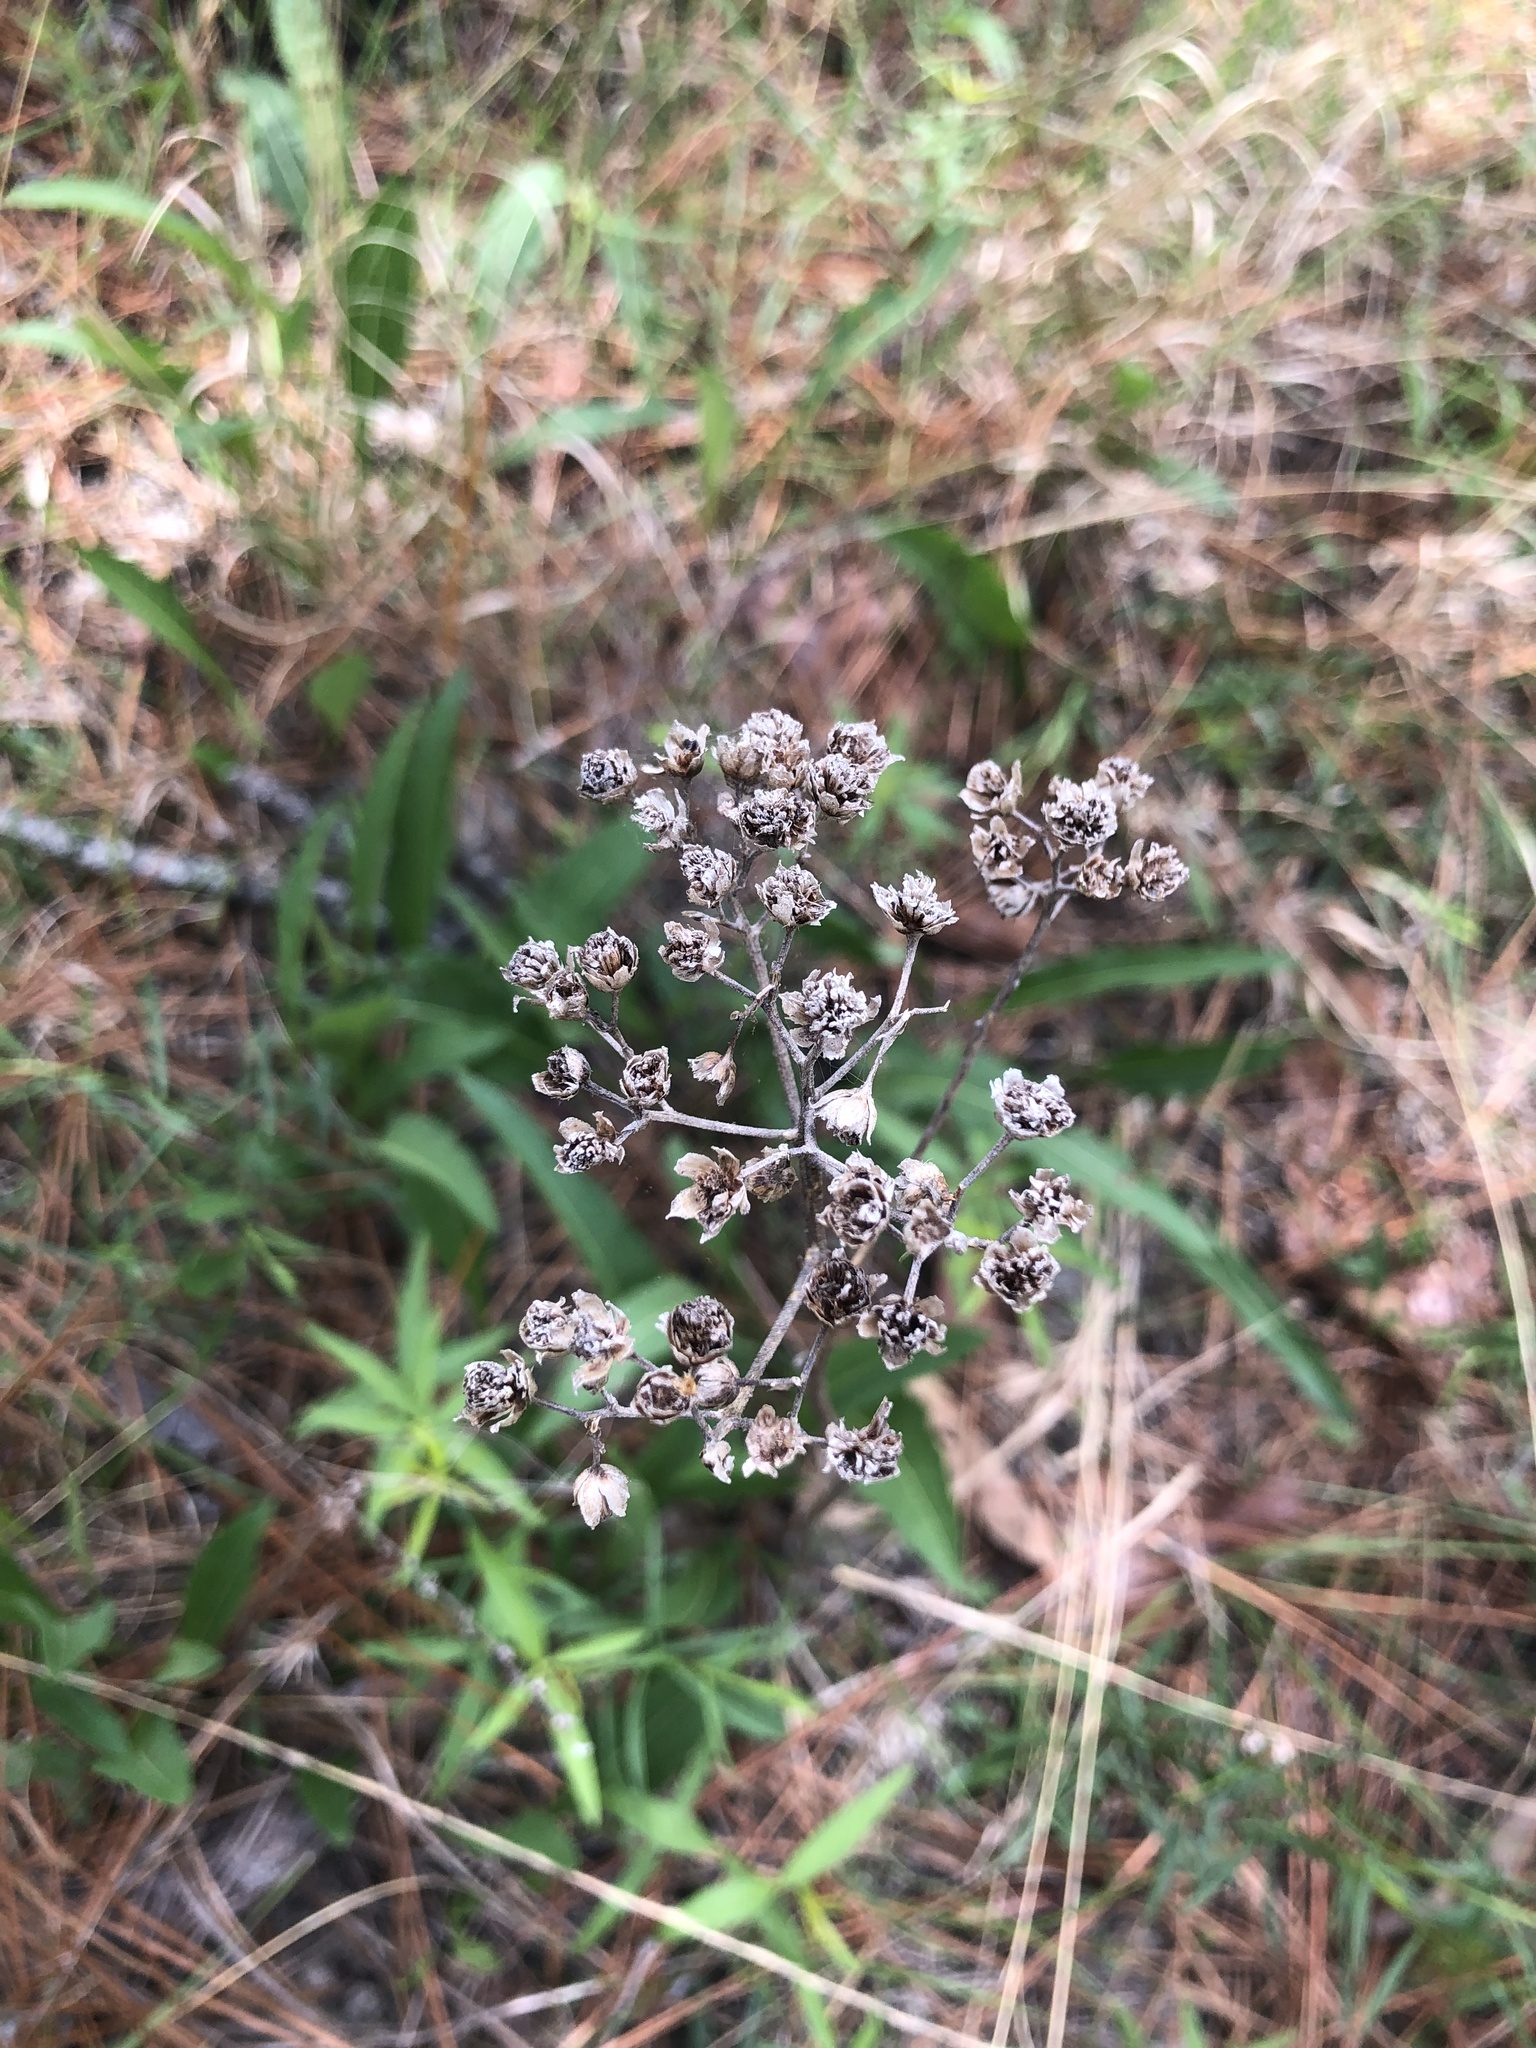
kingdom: Plantae
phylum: Tracheophyta
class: Magnoliopsida
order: Asterales
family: Asteraceae
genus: Parthenium
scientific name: Parthenium integrifolium
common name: American feverfew
